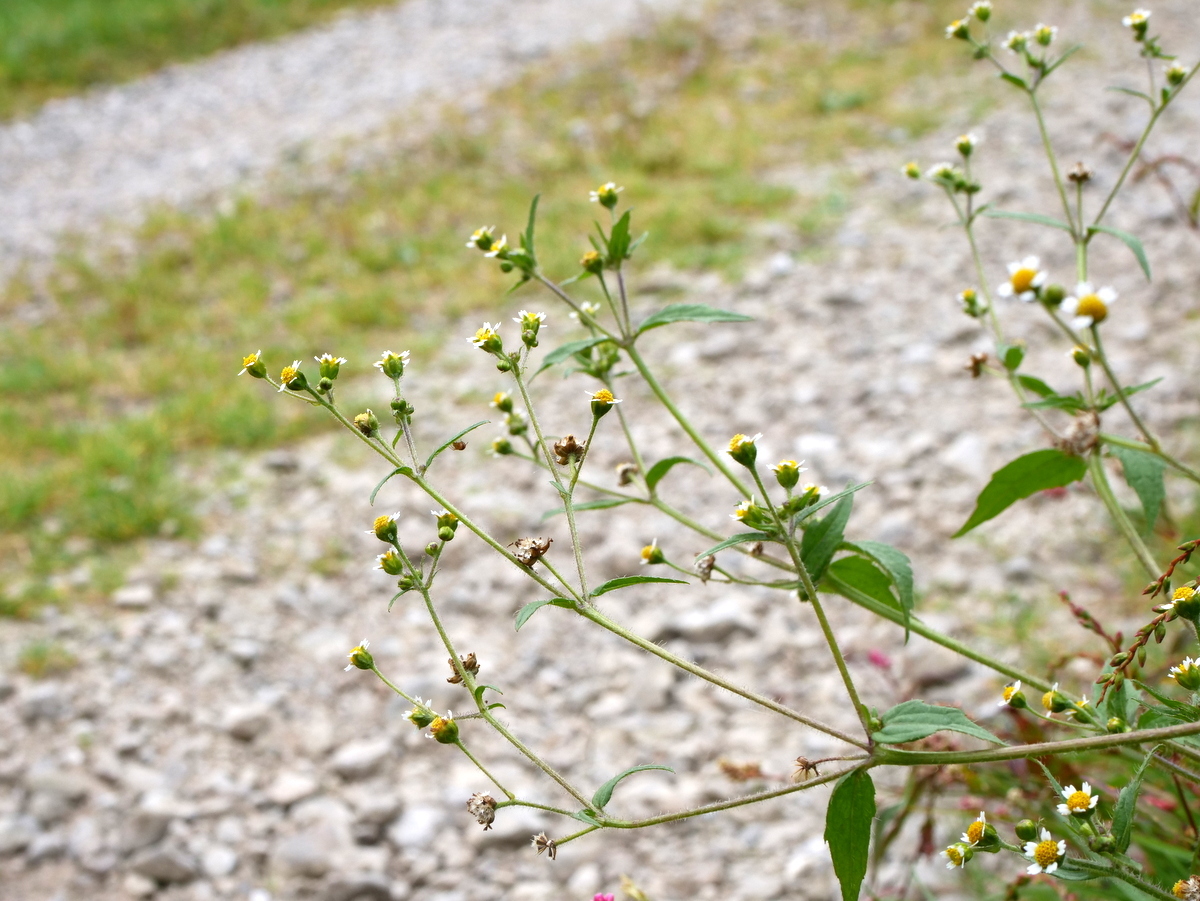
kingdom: Plantae
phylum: Tracheophyta
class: Magnoliopsida
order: Asterales
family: Asteraceae
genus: Galinsoga
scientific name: Galinsoga quadriradiata
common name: Shaggy soldier
